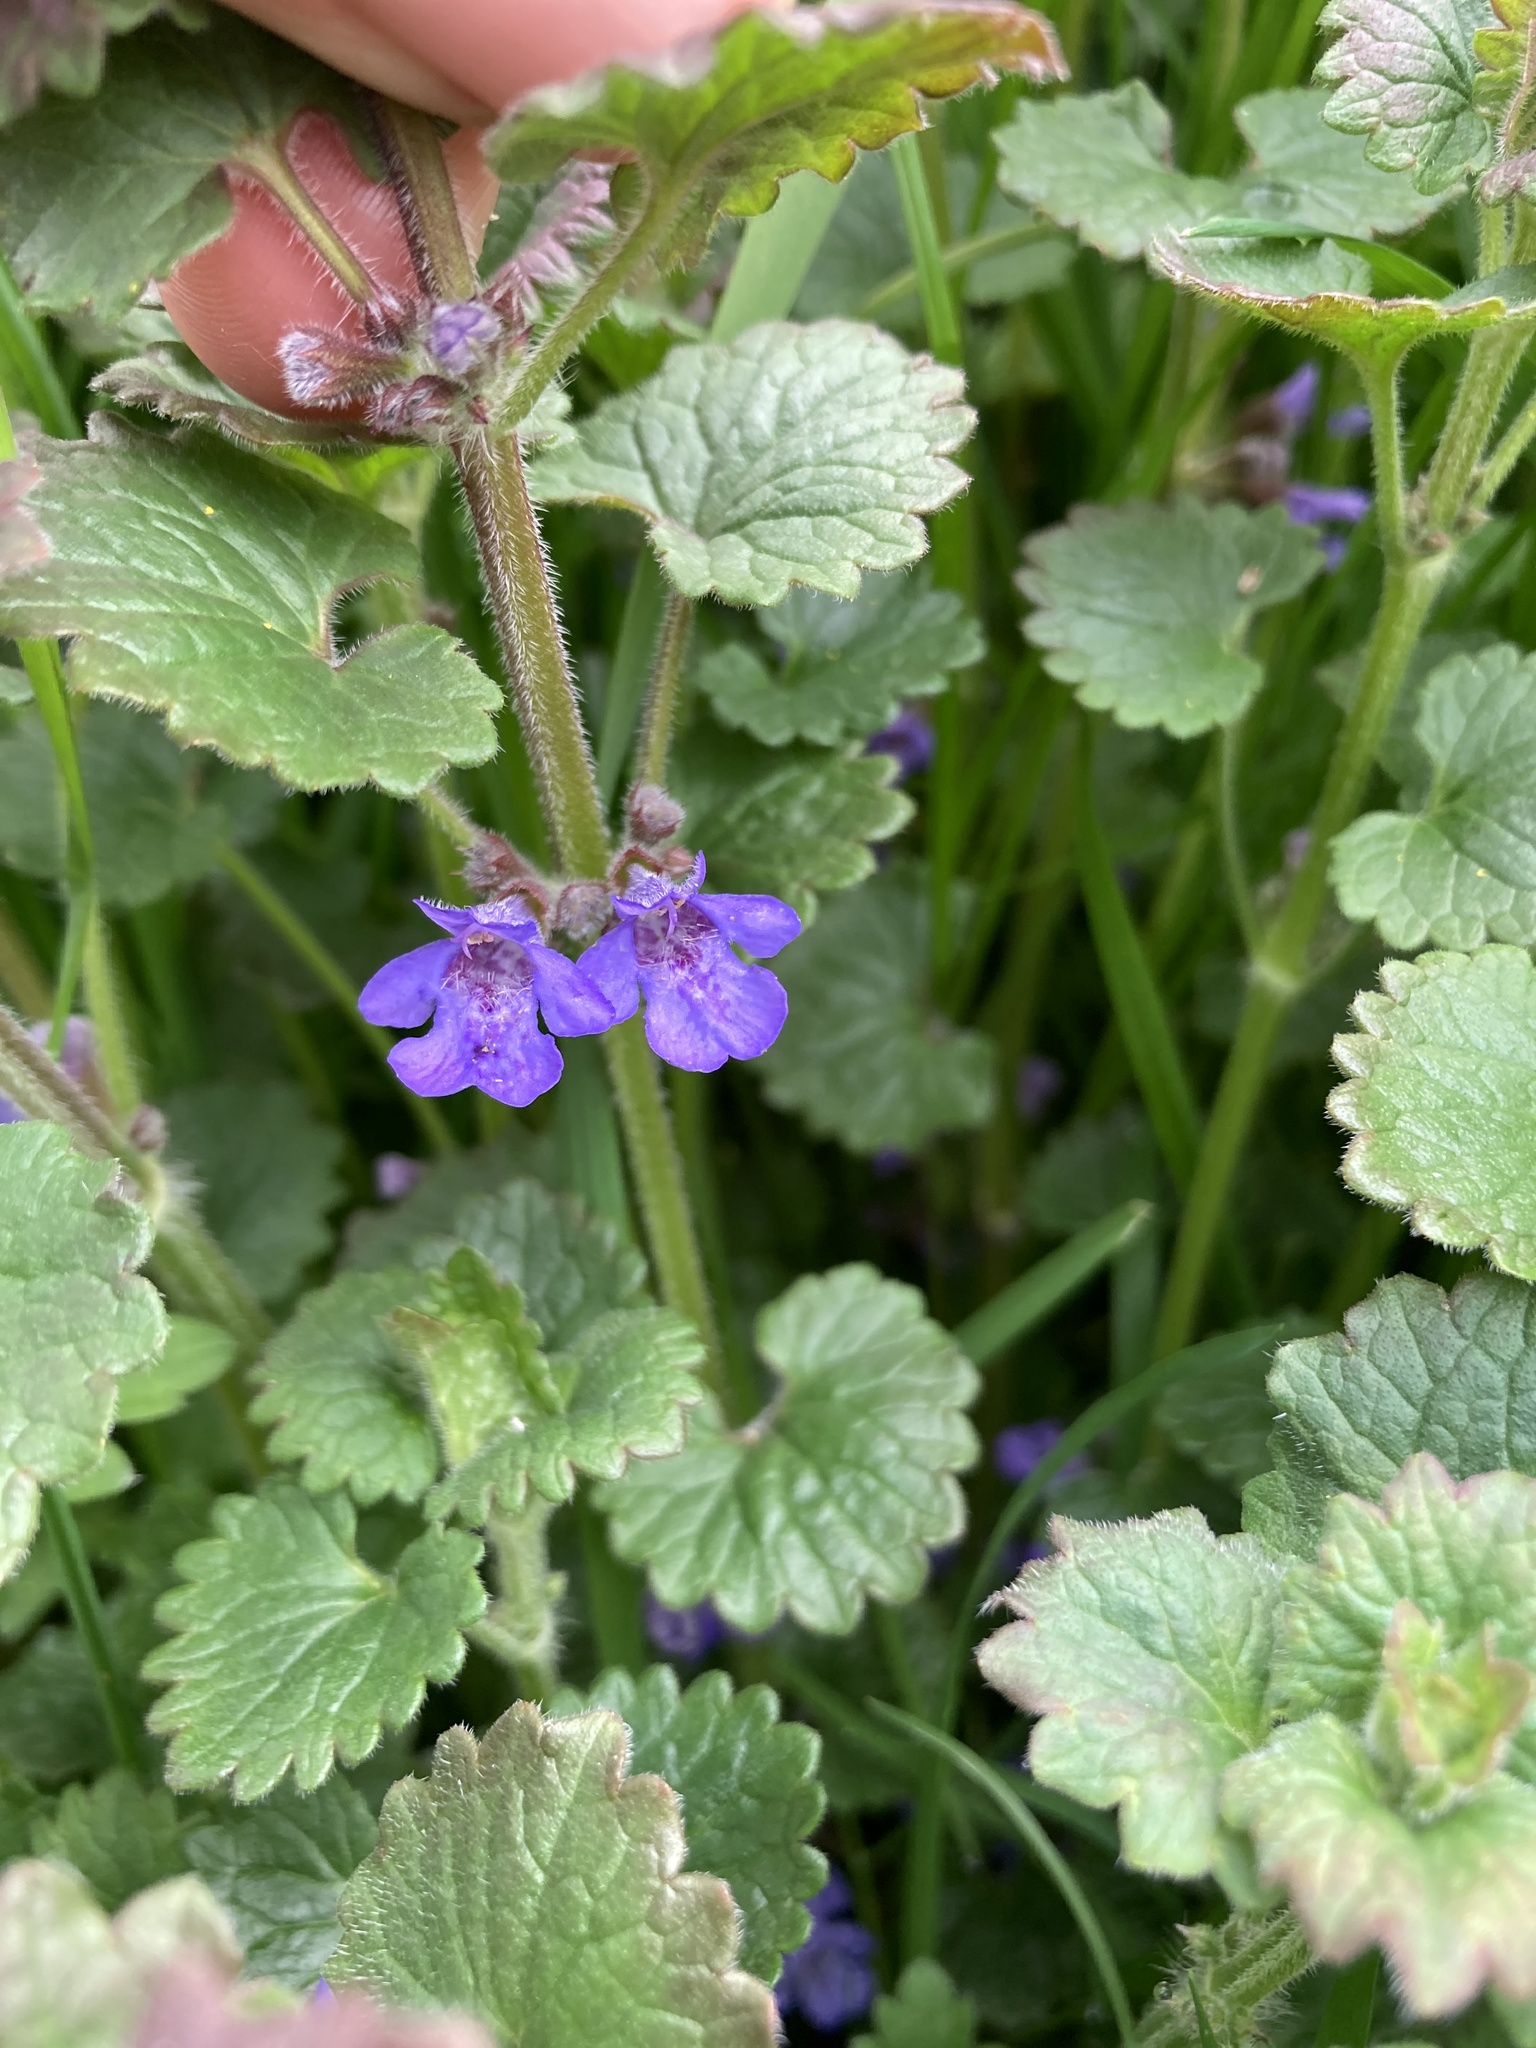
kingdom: Plantae
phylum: Tracheophyta
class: Magnoliopsida
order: Lamiales
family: Lamiaceae
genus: Glechoma
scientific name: Glechoma hederacea
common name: Ground ivy
